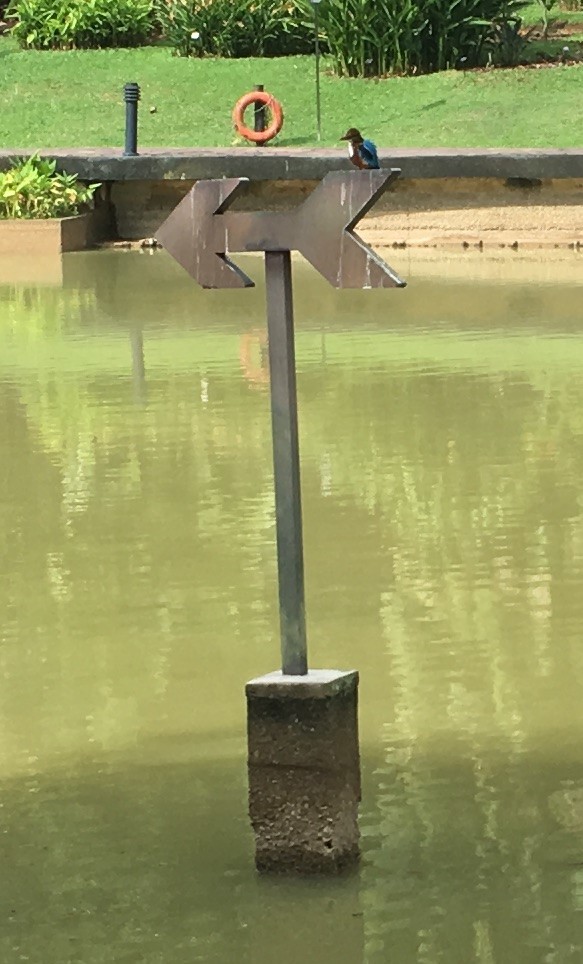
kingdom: Animalia
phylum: Chordata
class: Aves
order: Coraciiformes
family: Alcedinidae
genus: Halcyon
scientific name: Halcyon smyrnensis
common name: White-throated kingfisher
